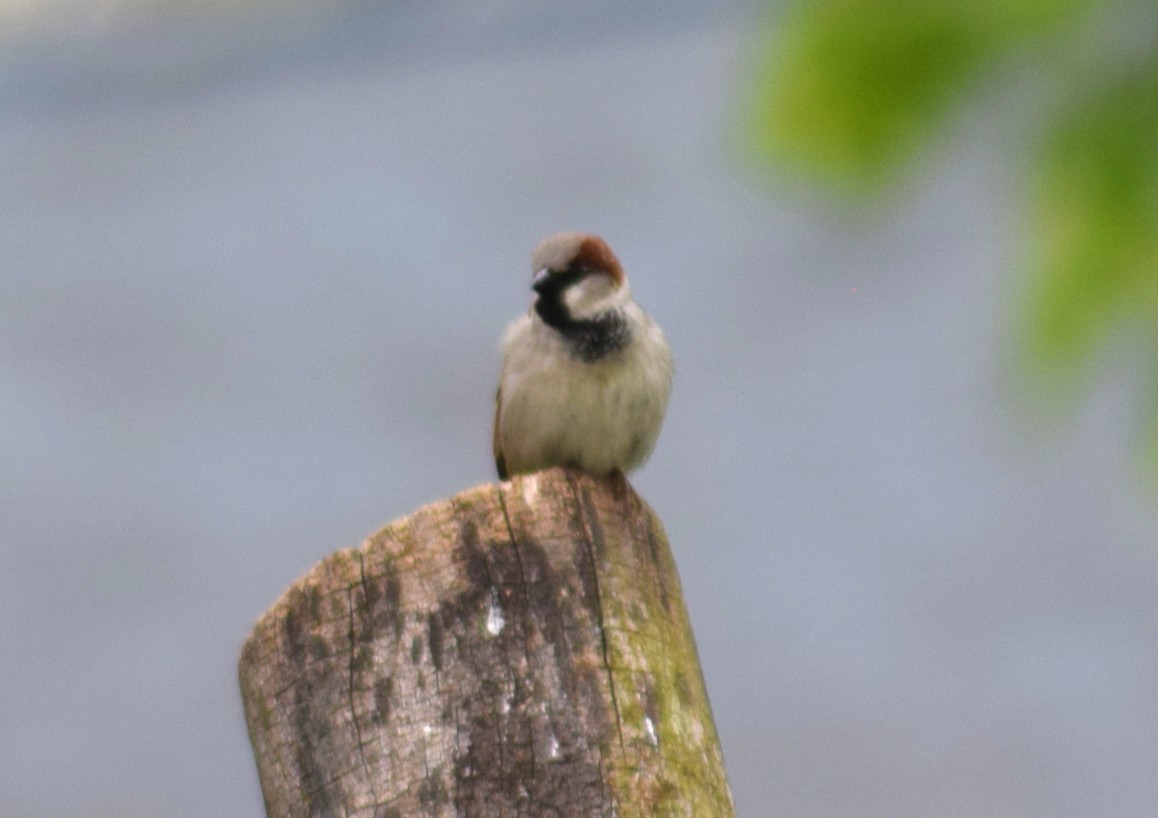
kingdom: Animalia
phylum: Chordata
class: Aves
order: Passeriformes
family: Passeridae
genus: Passer
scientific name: Passer domesticus
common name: House sparrow
